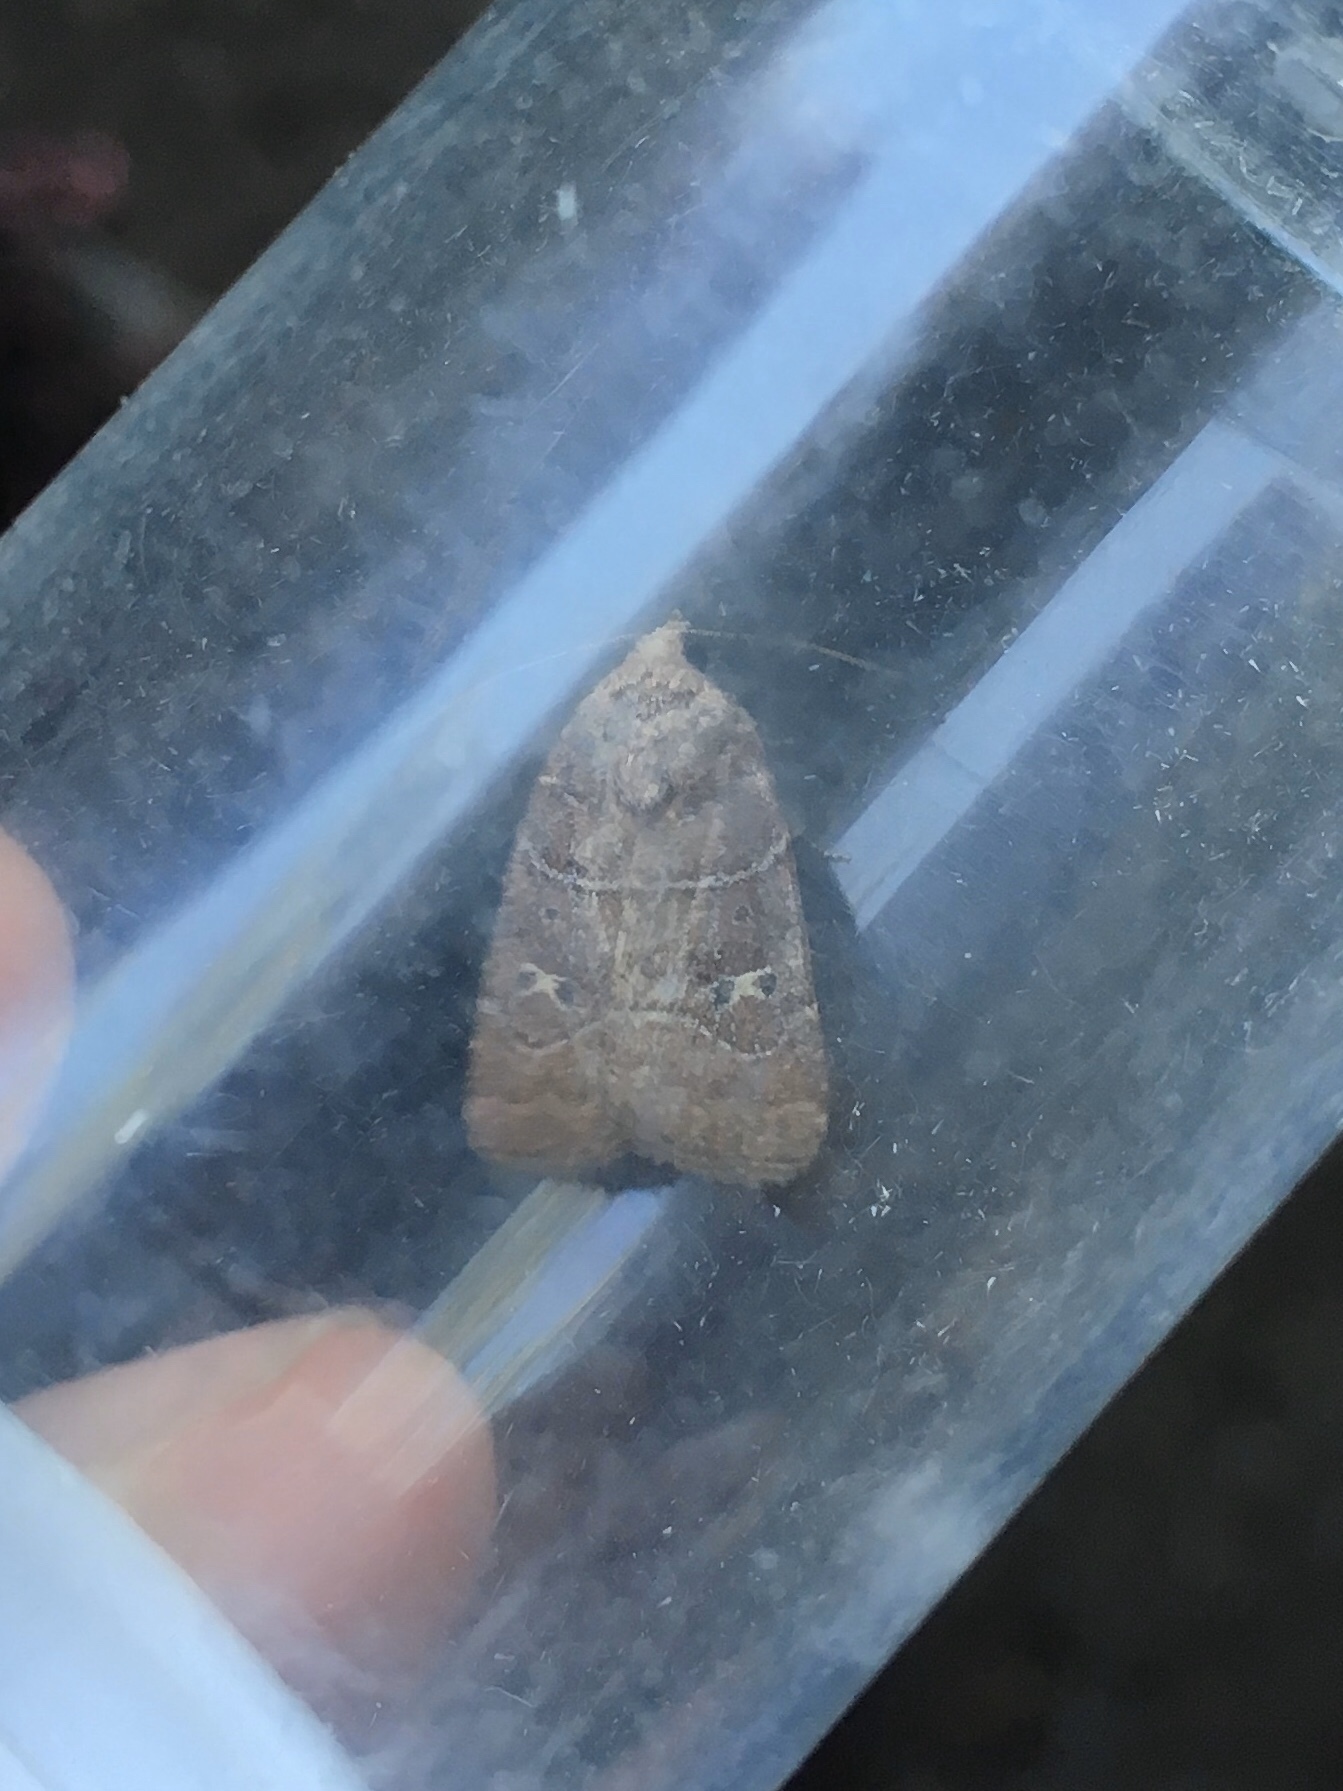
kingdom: Animalia
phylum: Arthropoda
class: Insecta
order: Lepidoptera
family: Noctuidae
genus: Elaphria
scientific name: Elaphria grata
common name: Grateful midget moth
